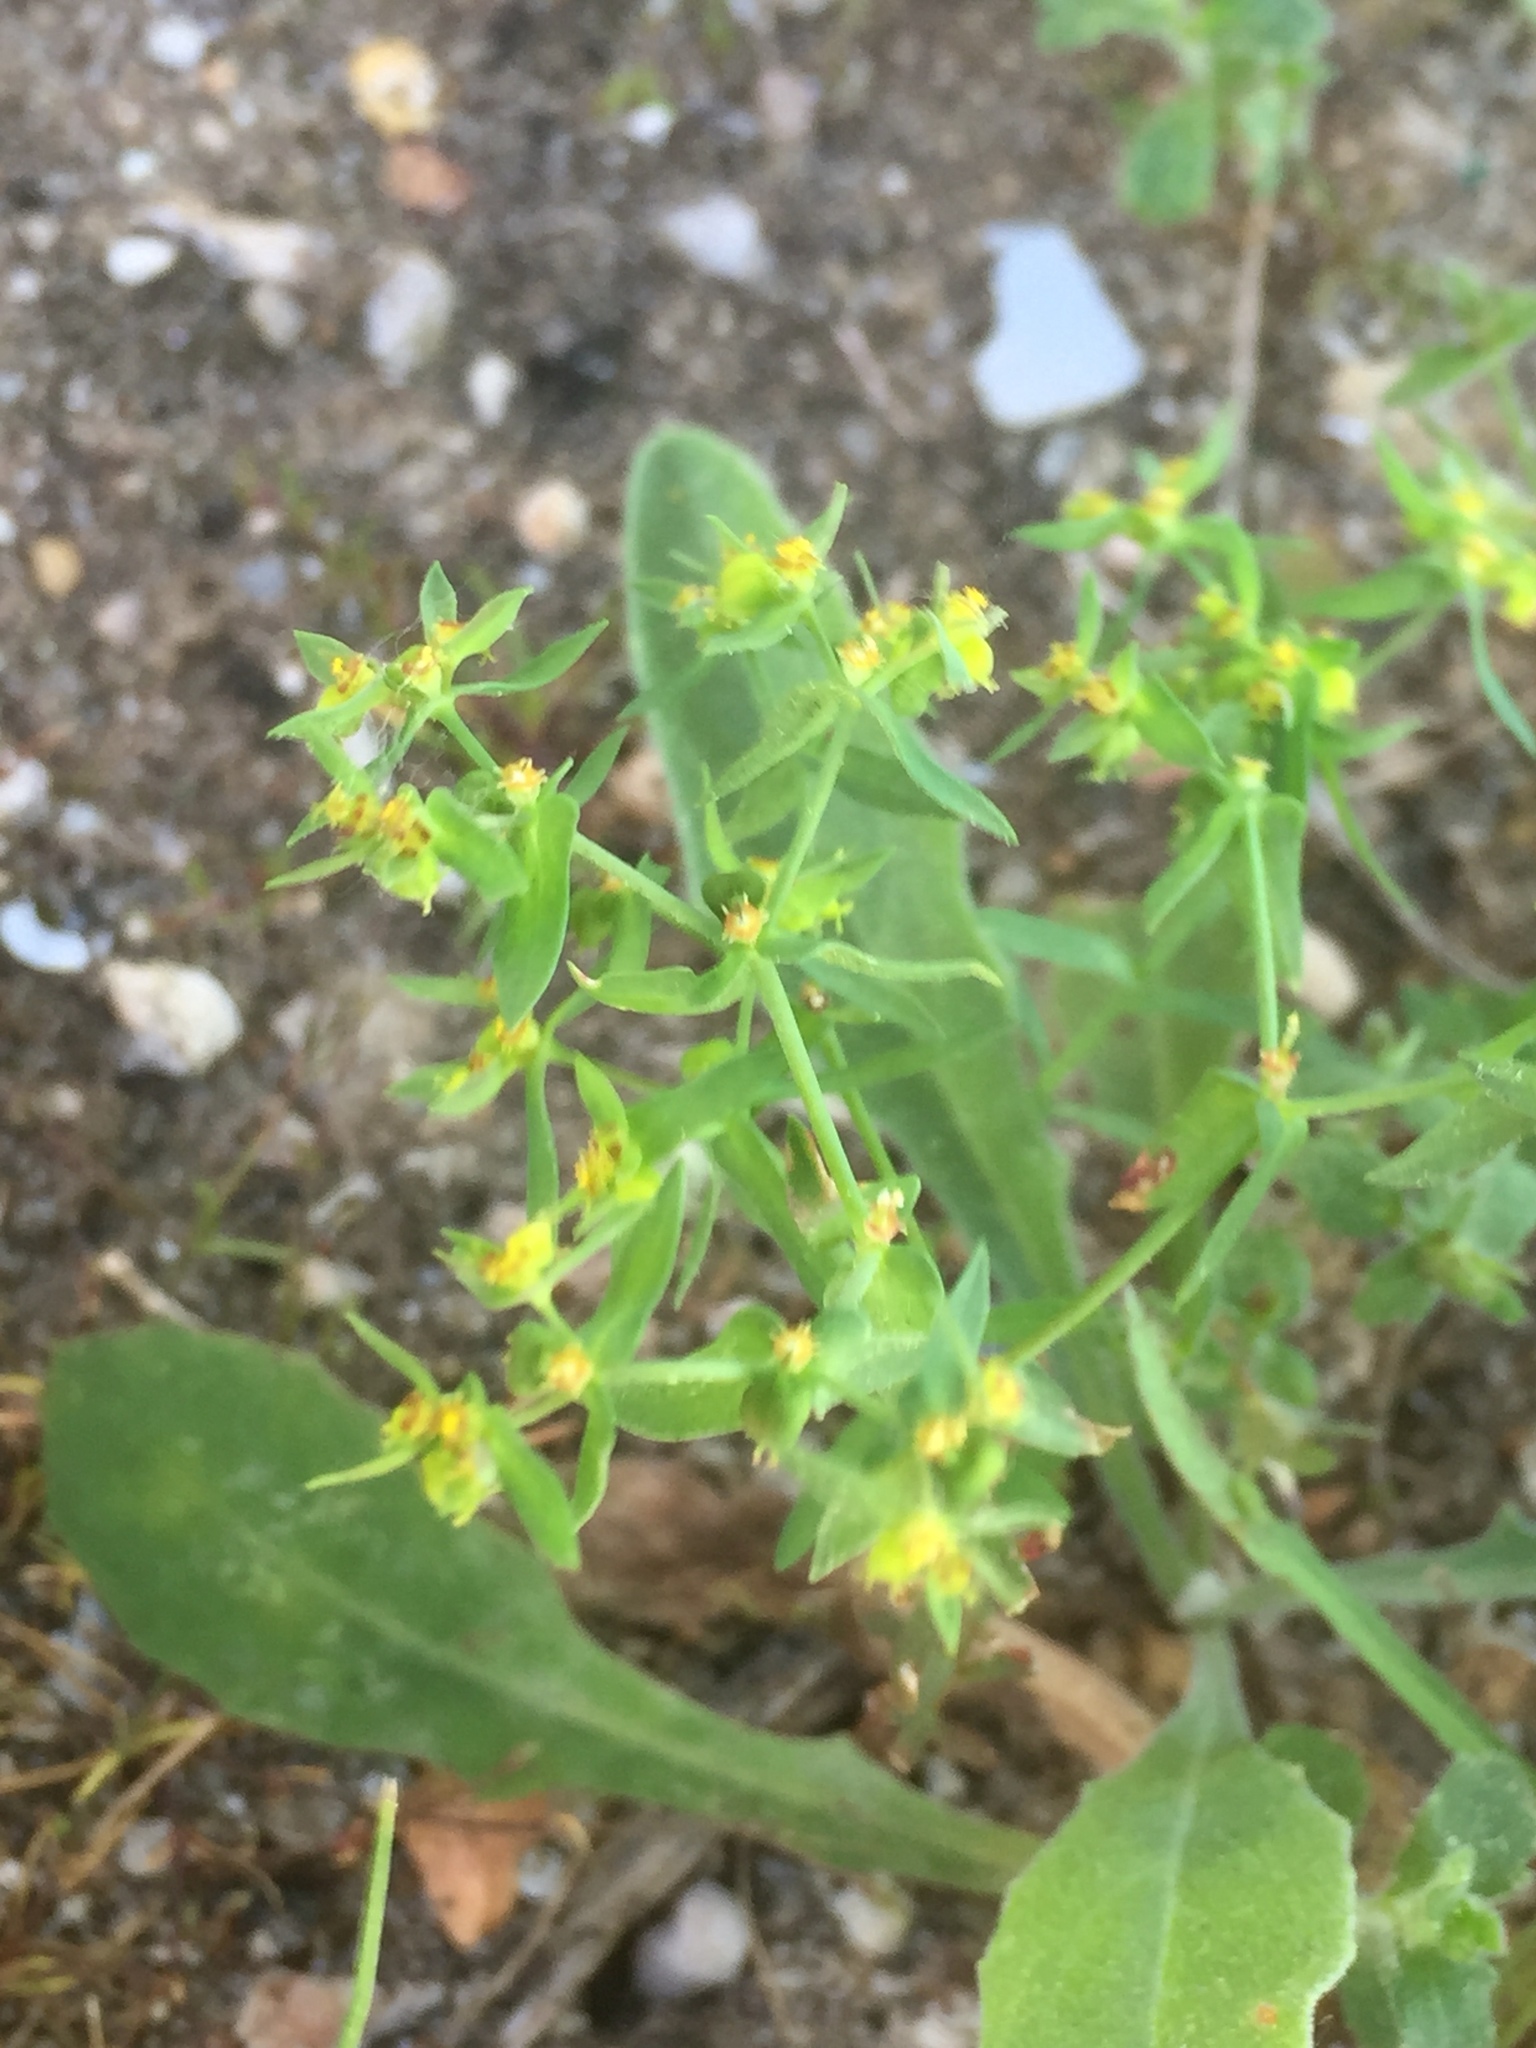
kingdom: Plantae
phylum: Tracheophyta
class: Magnoliopsida
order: Malpighiales
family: Euphorbiaceae
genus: Euphorbia
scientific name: Euphorbia exigua
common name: Dwarf spurge
